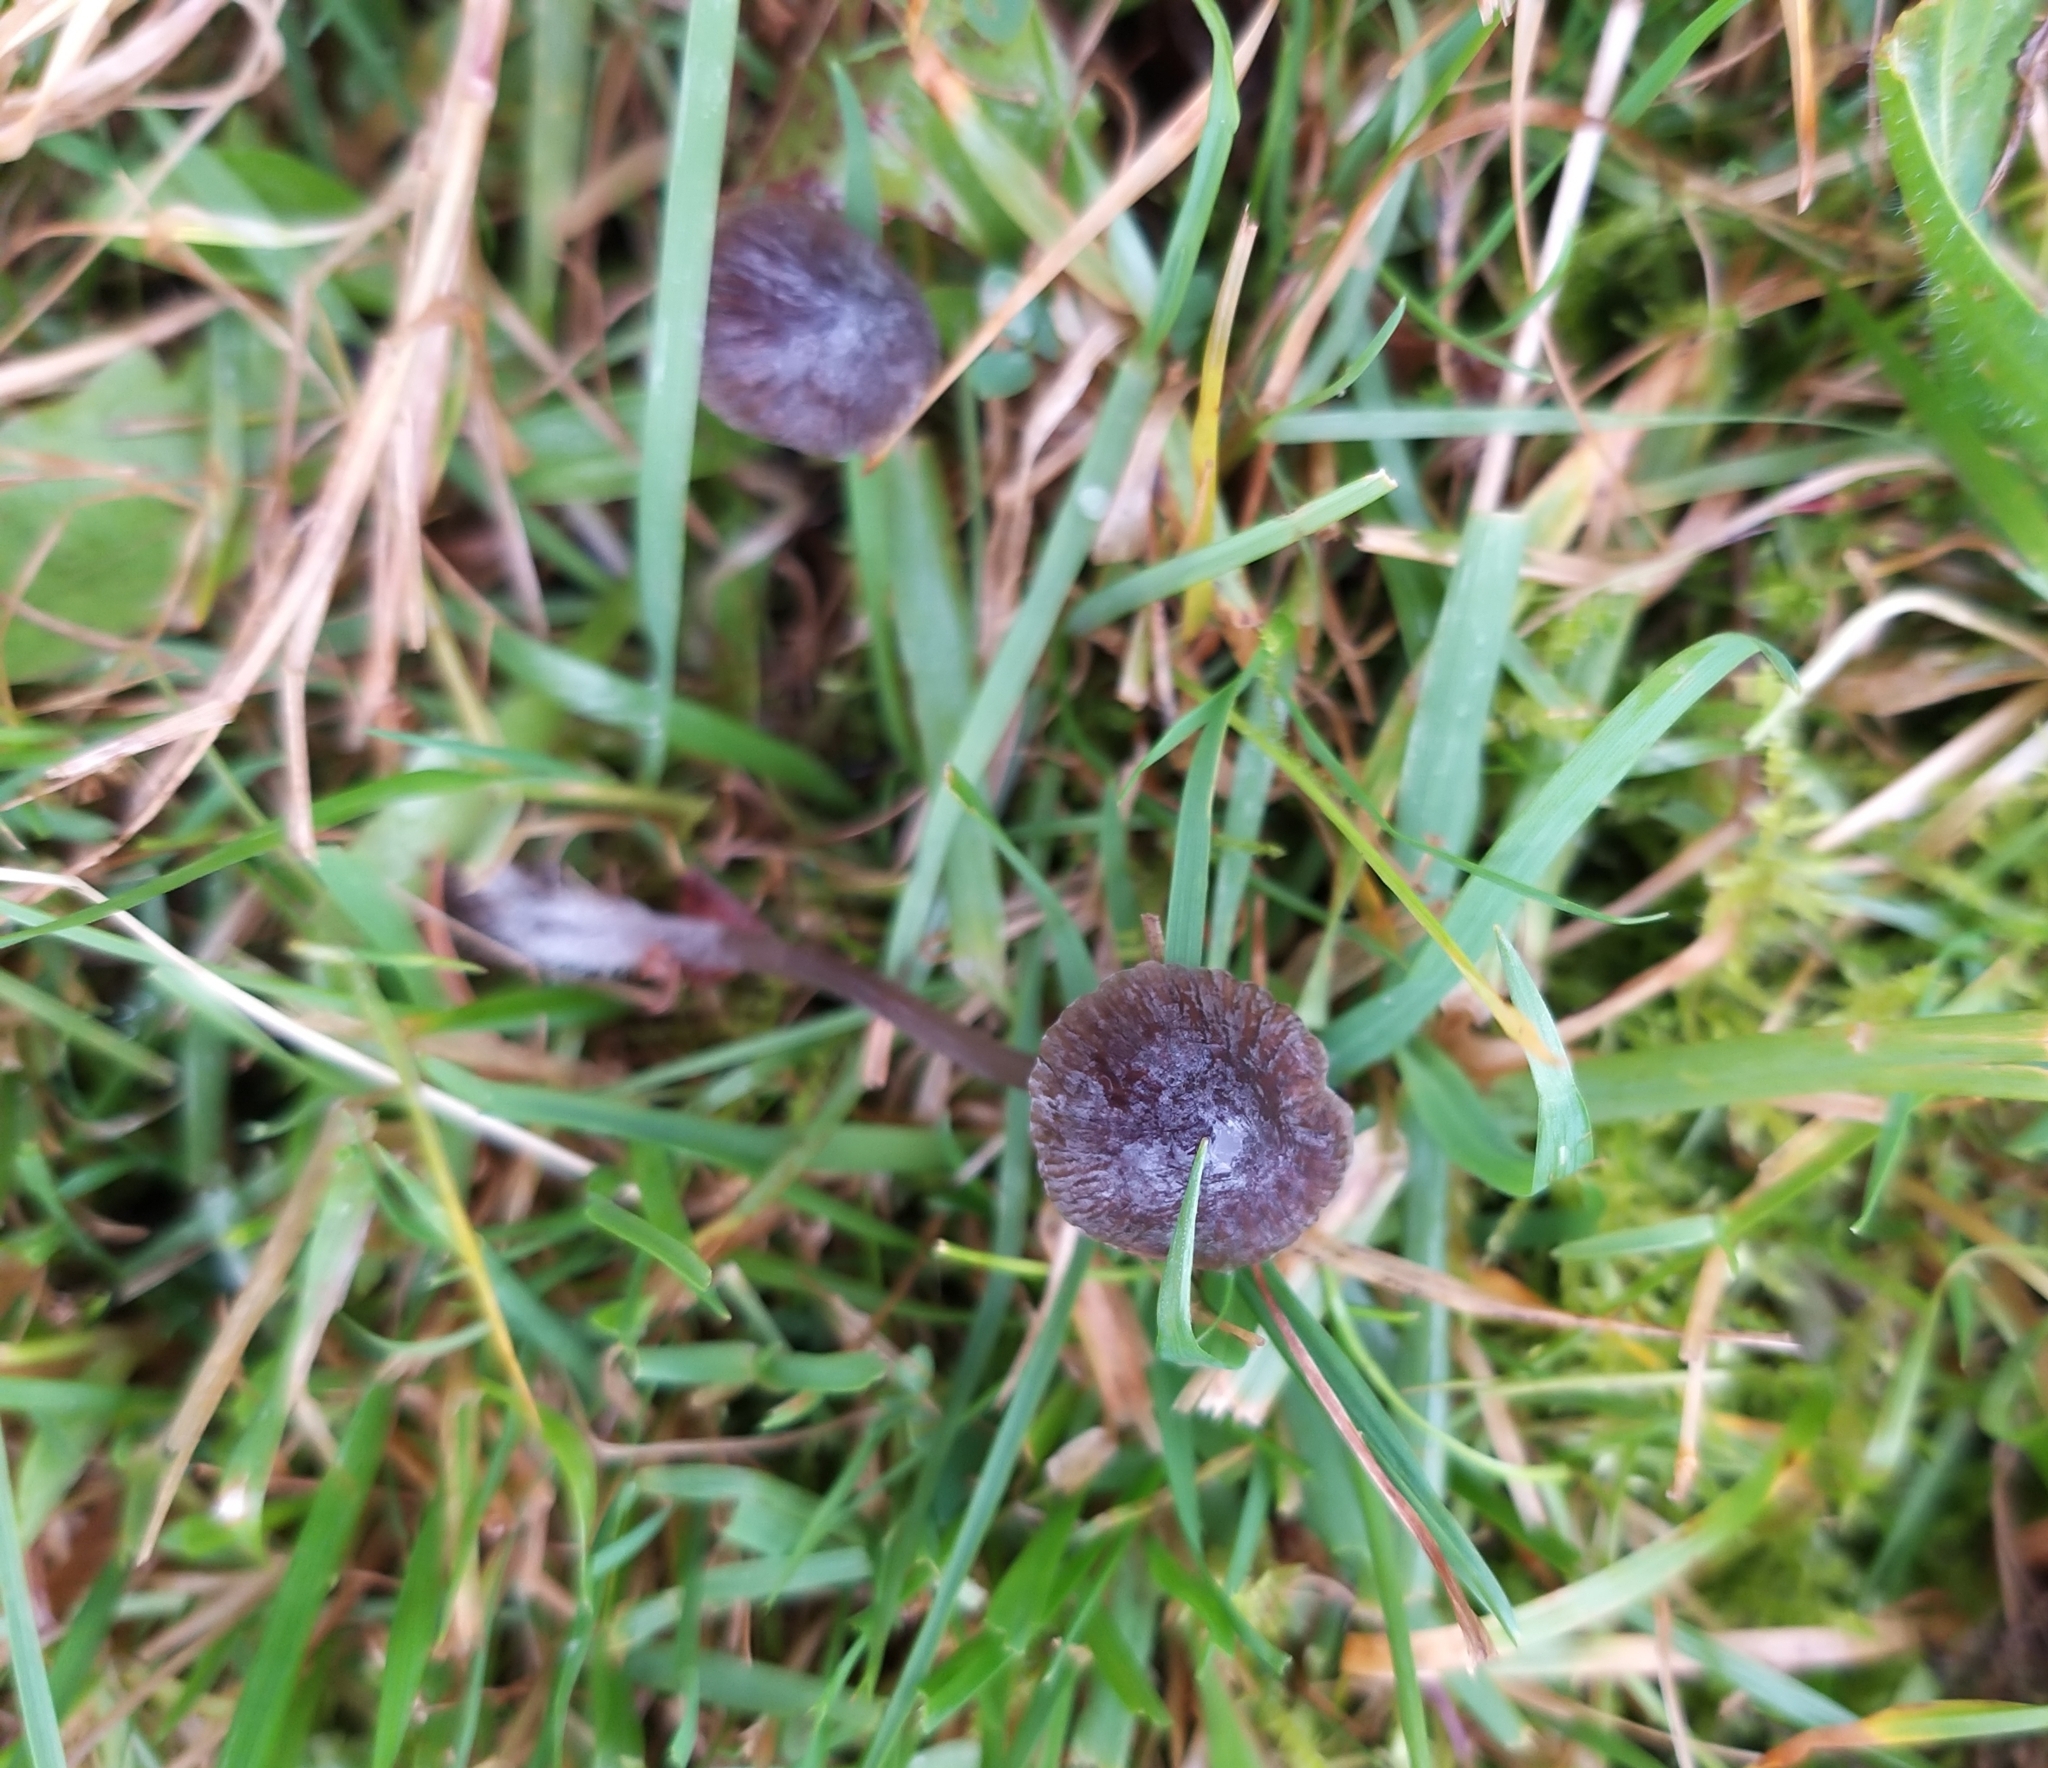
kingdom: Fungi
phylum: Basidiomycota
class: Agaricomycetes
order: Agaricales
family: Mycenaceae
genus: Mycena
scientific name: Mycena galopus
